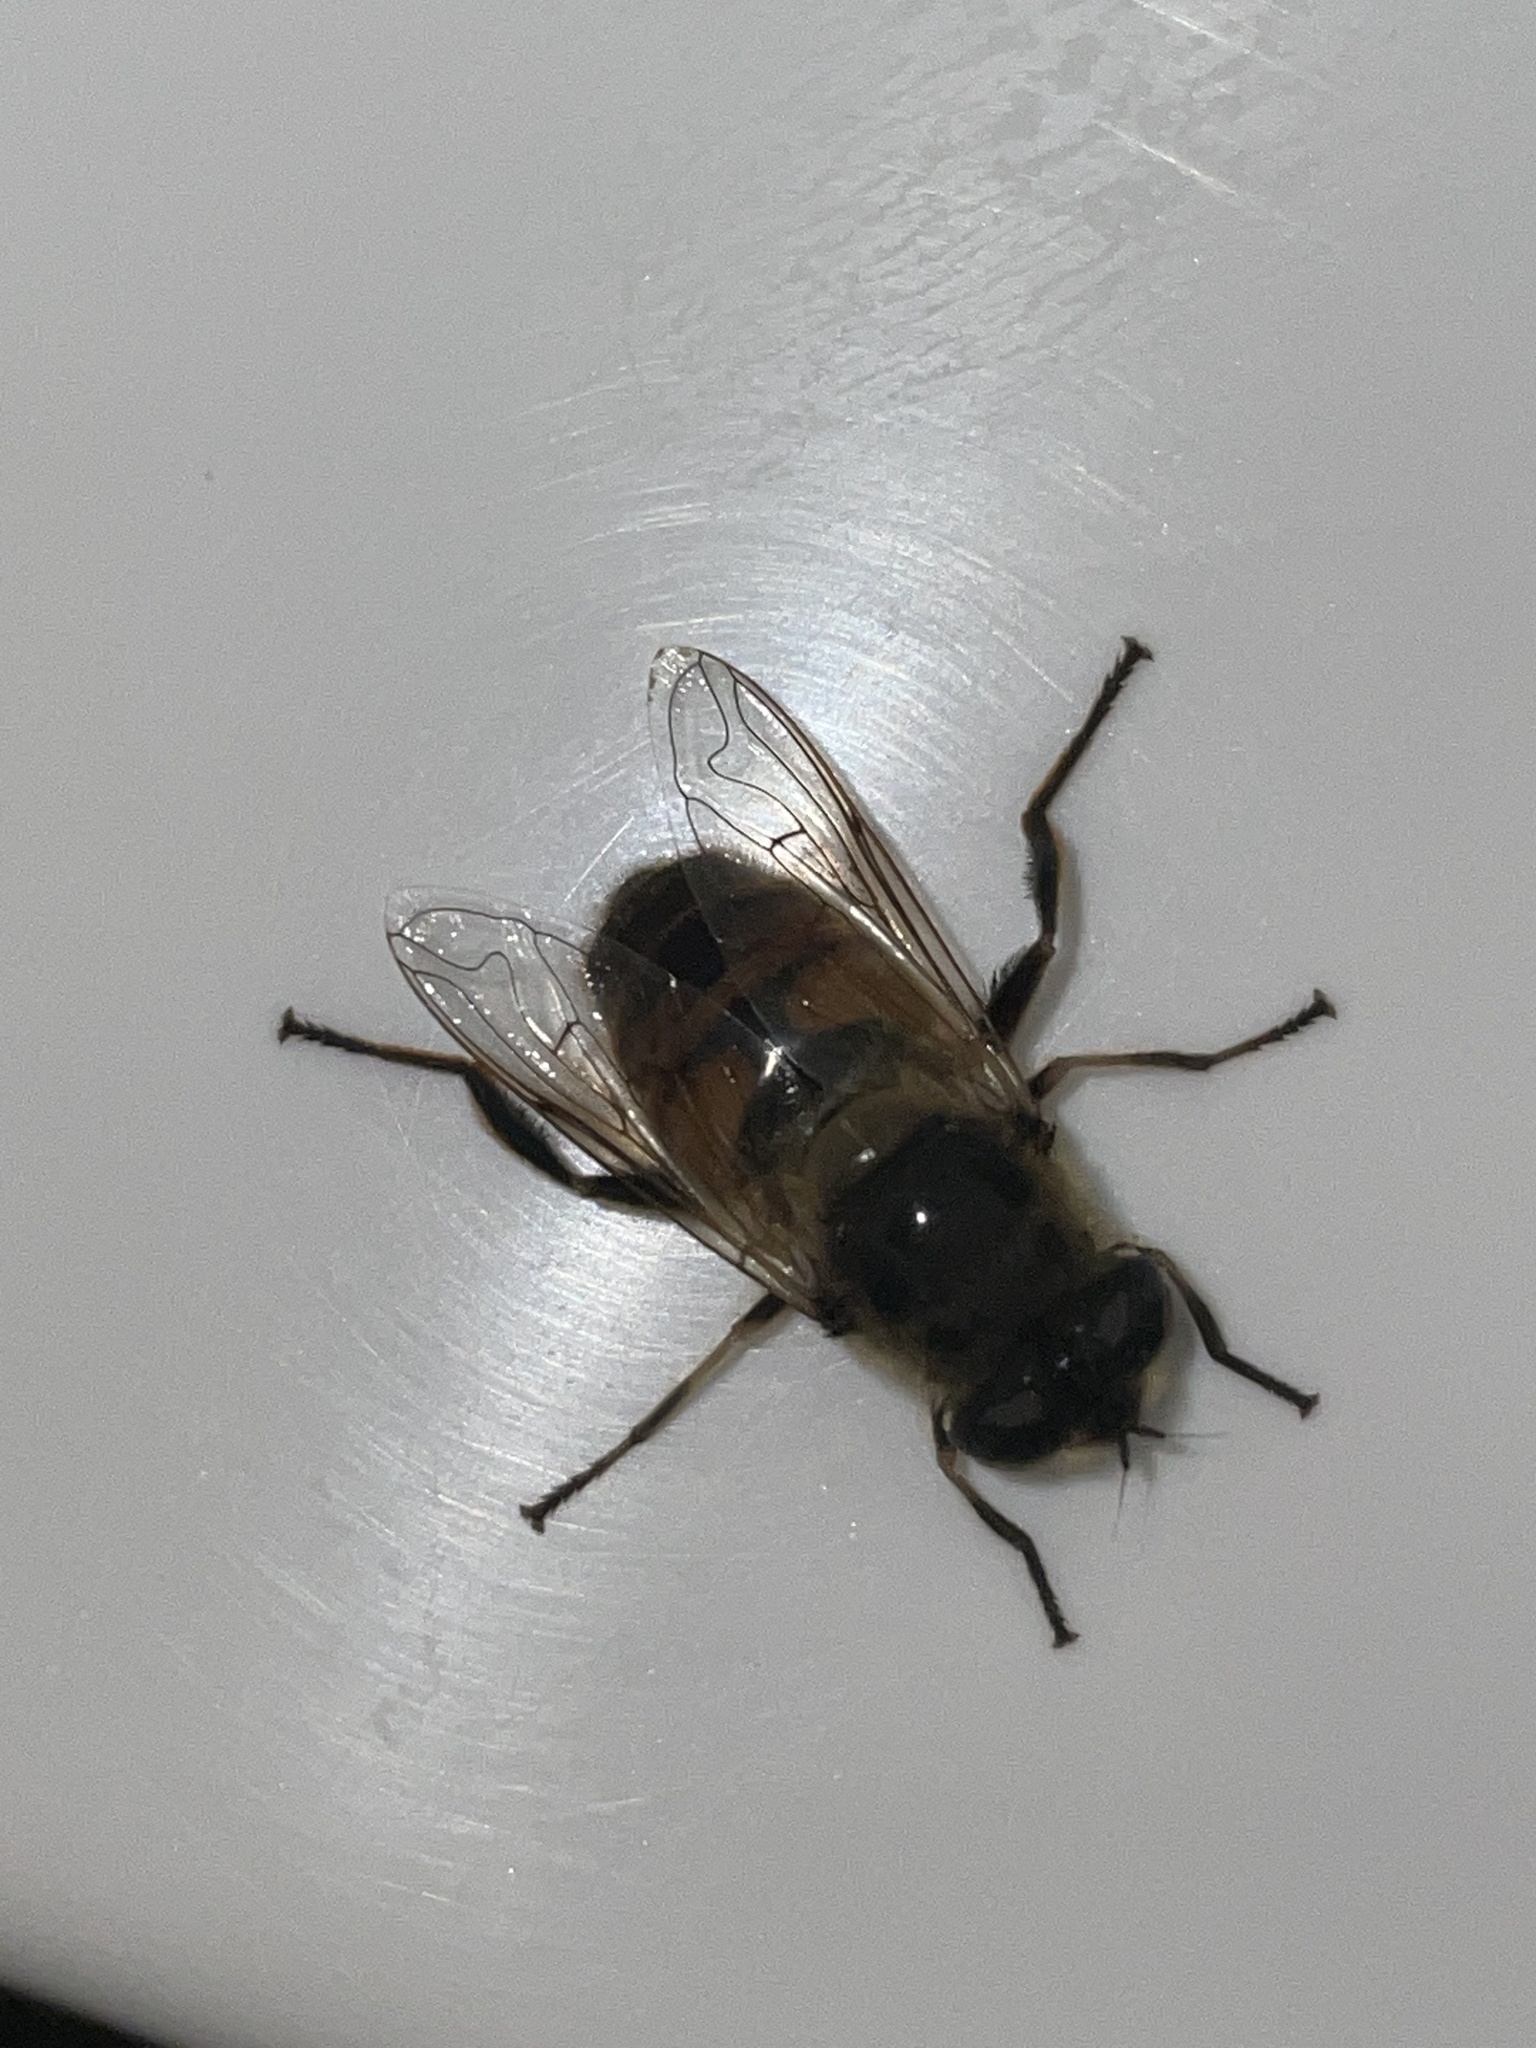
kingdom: Animalia
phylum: Arthropoda
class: Insecta
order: Diptera
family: Syrphidae
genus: Eristalis
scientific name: Eristalis tenax
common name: Drone fly
